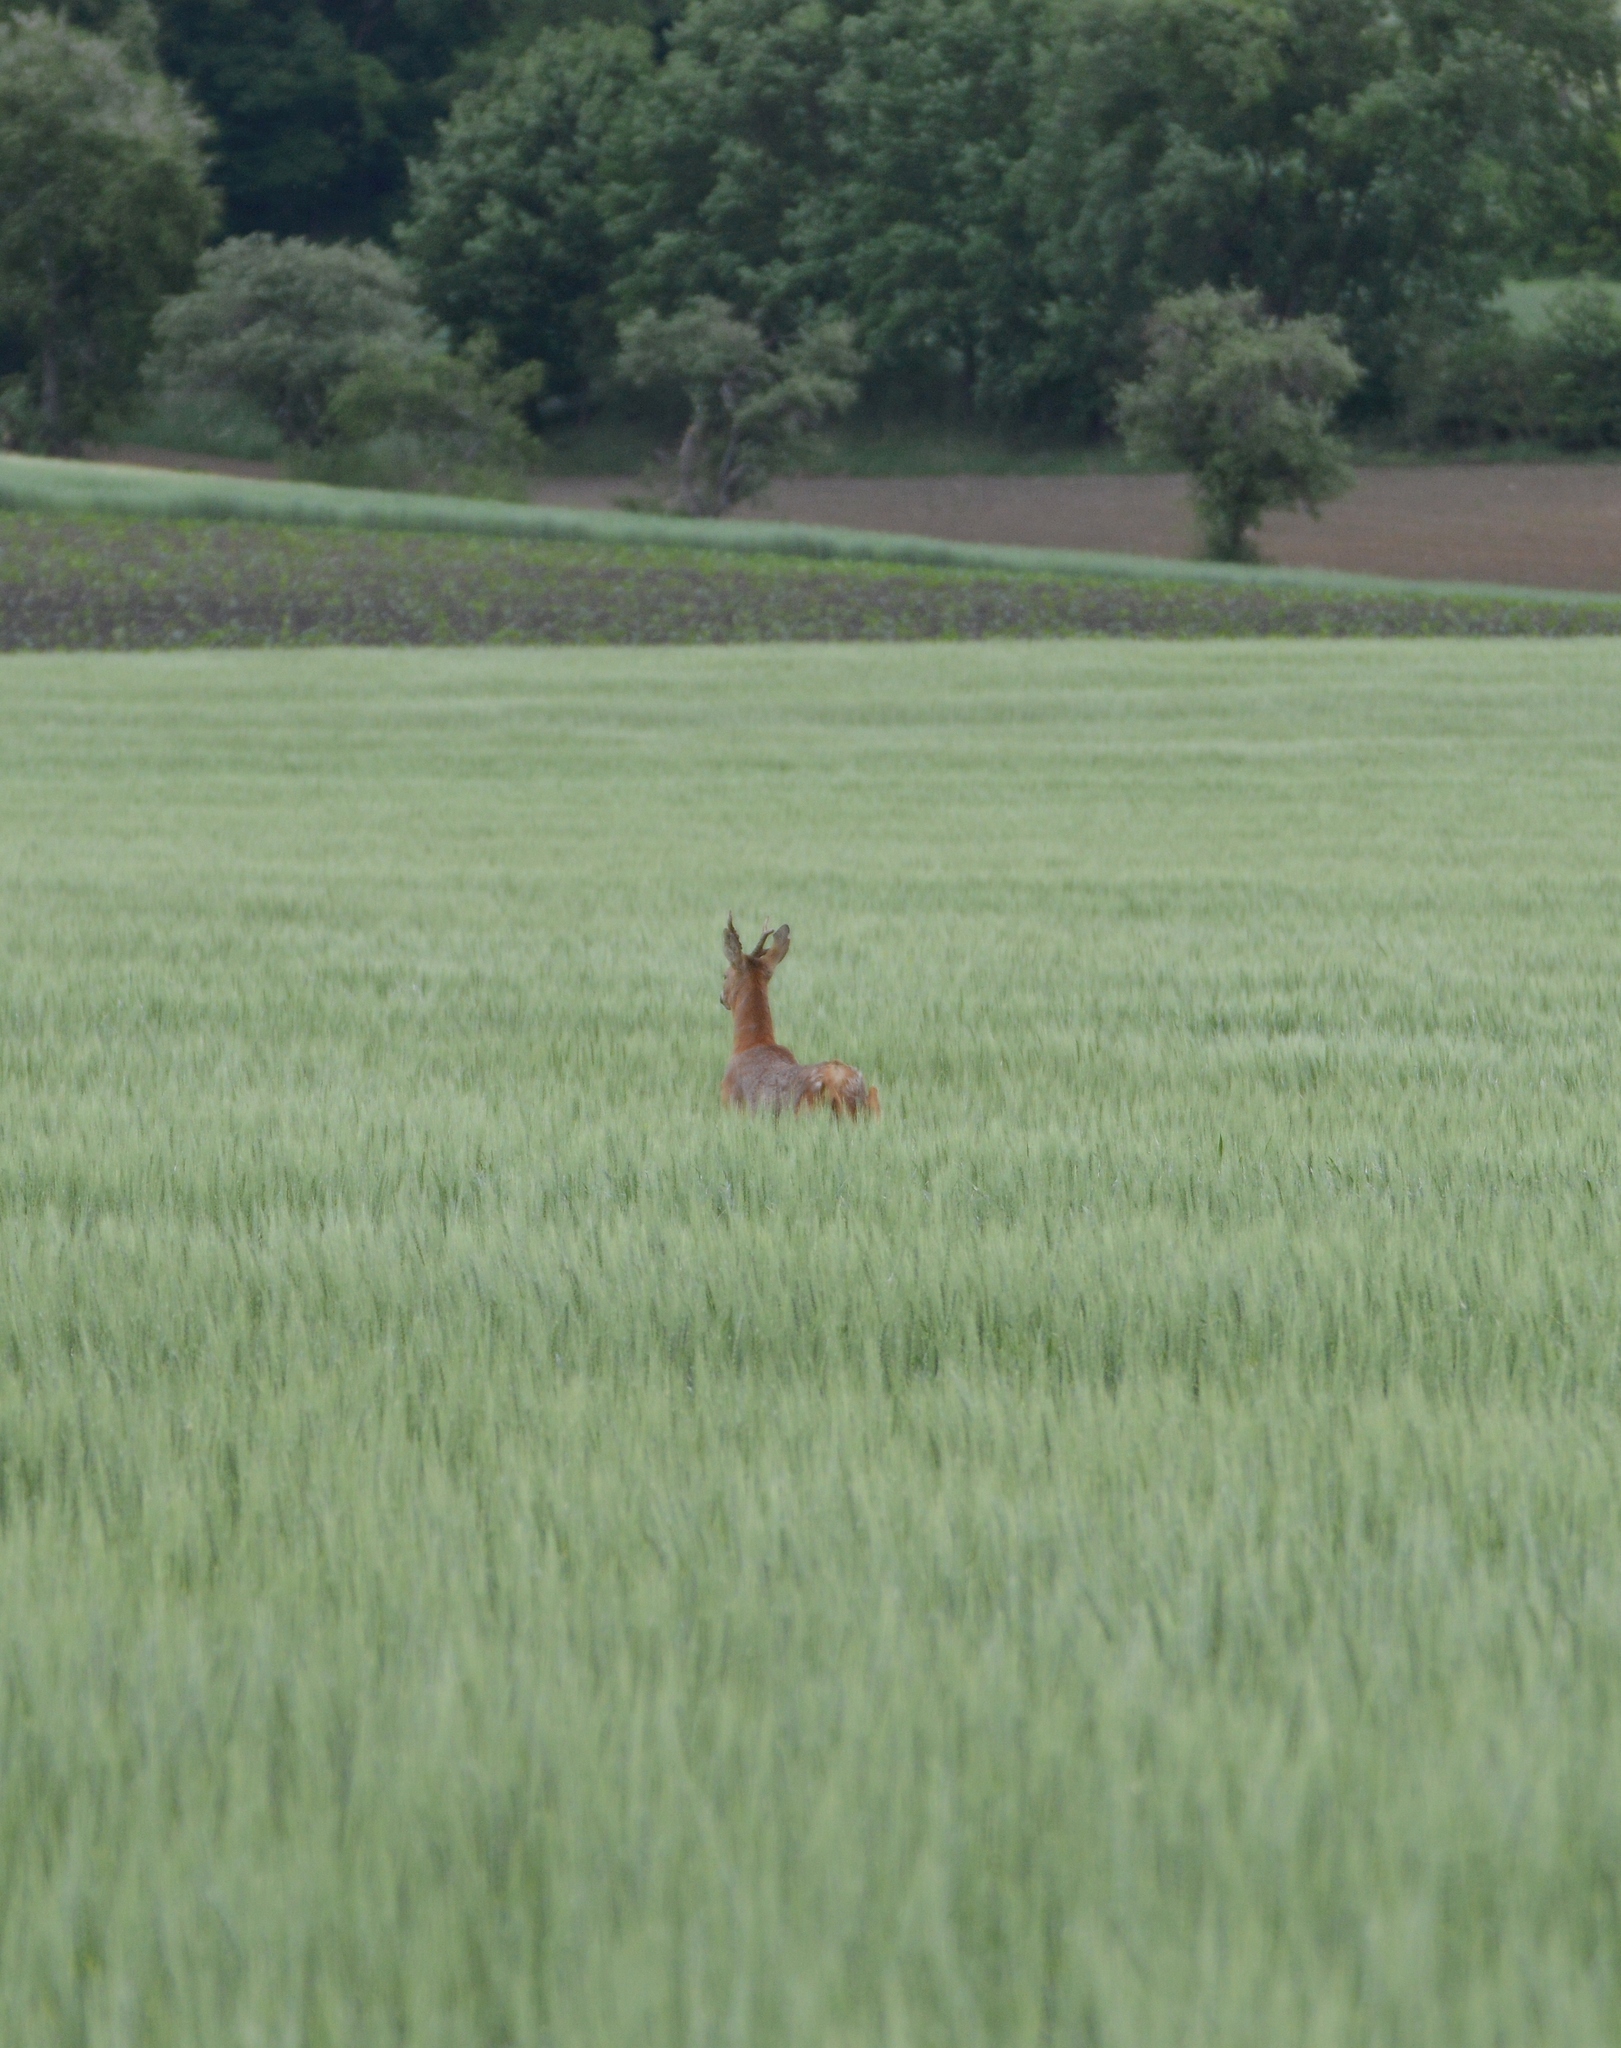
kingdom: Animalia
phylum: Chordata
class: Mammalia
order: Artiodactyla
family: Cervidae
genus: Capreolus
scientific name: Capreolus capreolus
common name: Western roe deer
